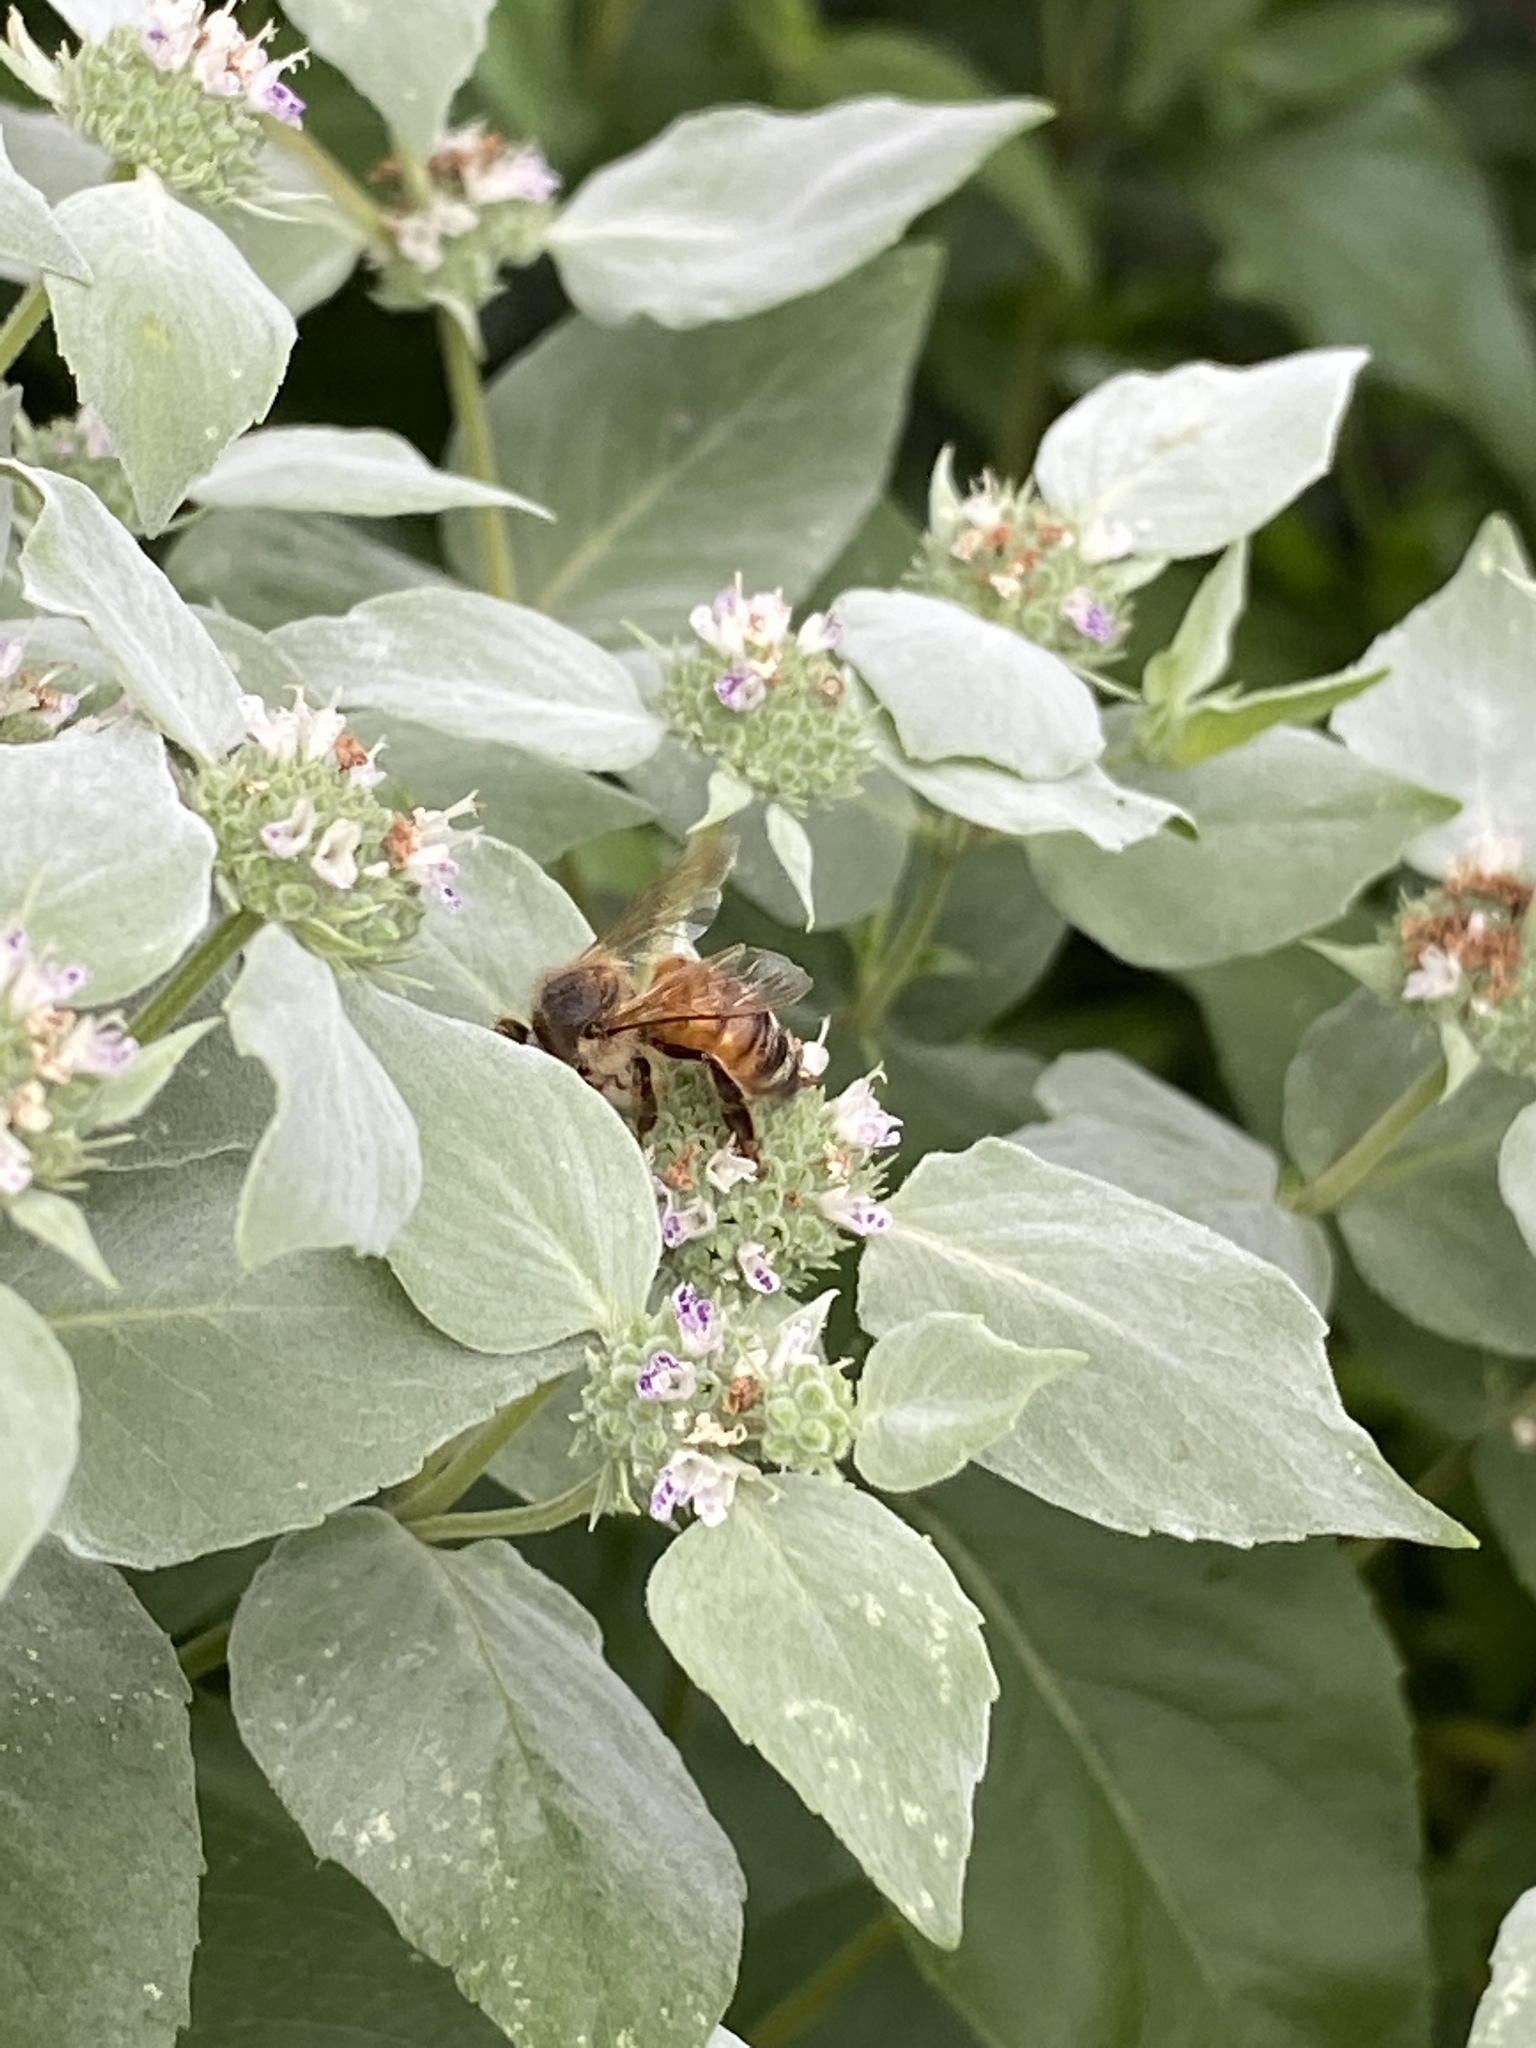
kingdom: Animalia
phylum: Arthropoda
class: Insecta
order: Hymenoptera
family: Apidae
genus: Apis
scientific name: Apis mellifera
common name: Honey bee
